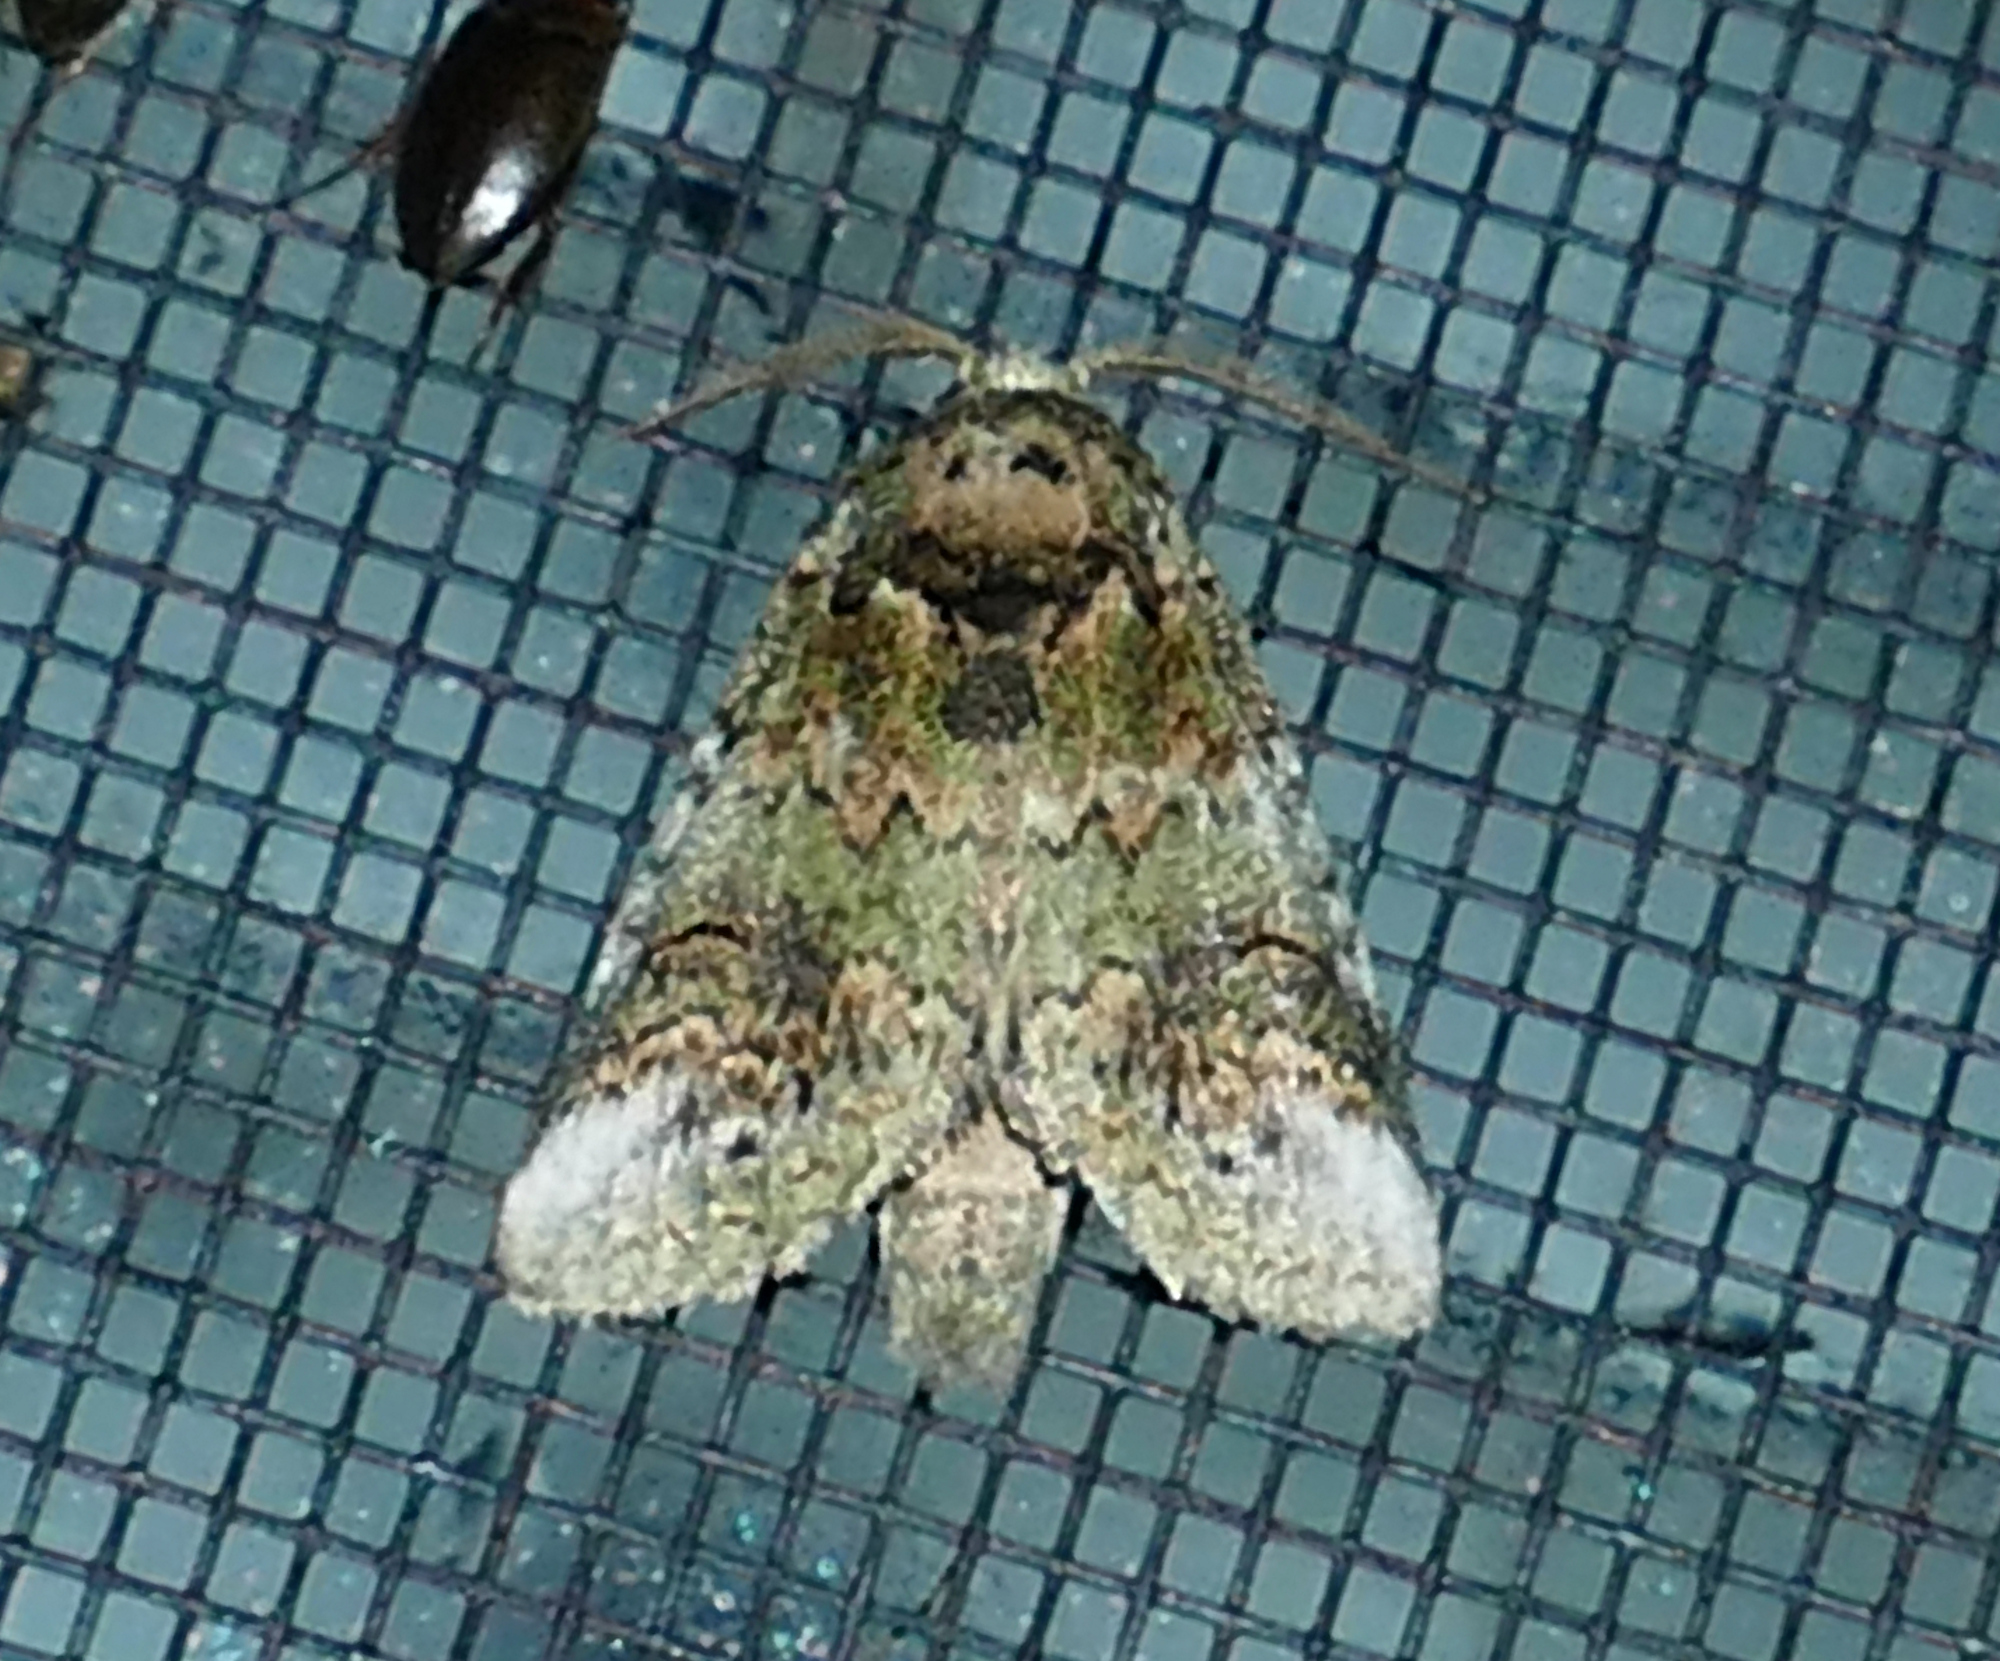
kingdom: Animalia
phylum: Arthropoda
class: Insecta
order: Lepidoptera
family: Notodontidae
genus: Rifargia
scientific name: Rifargia
